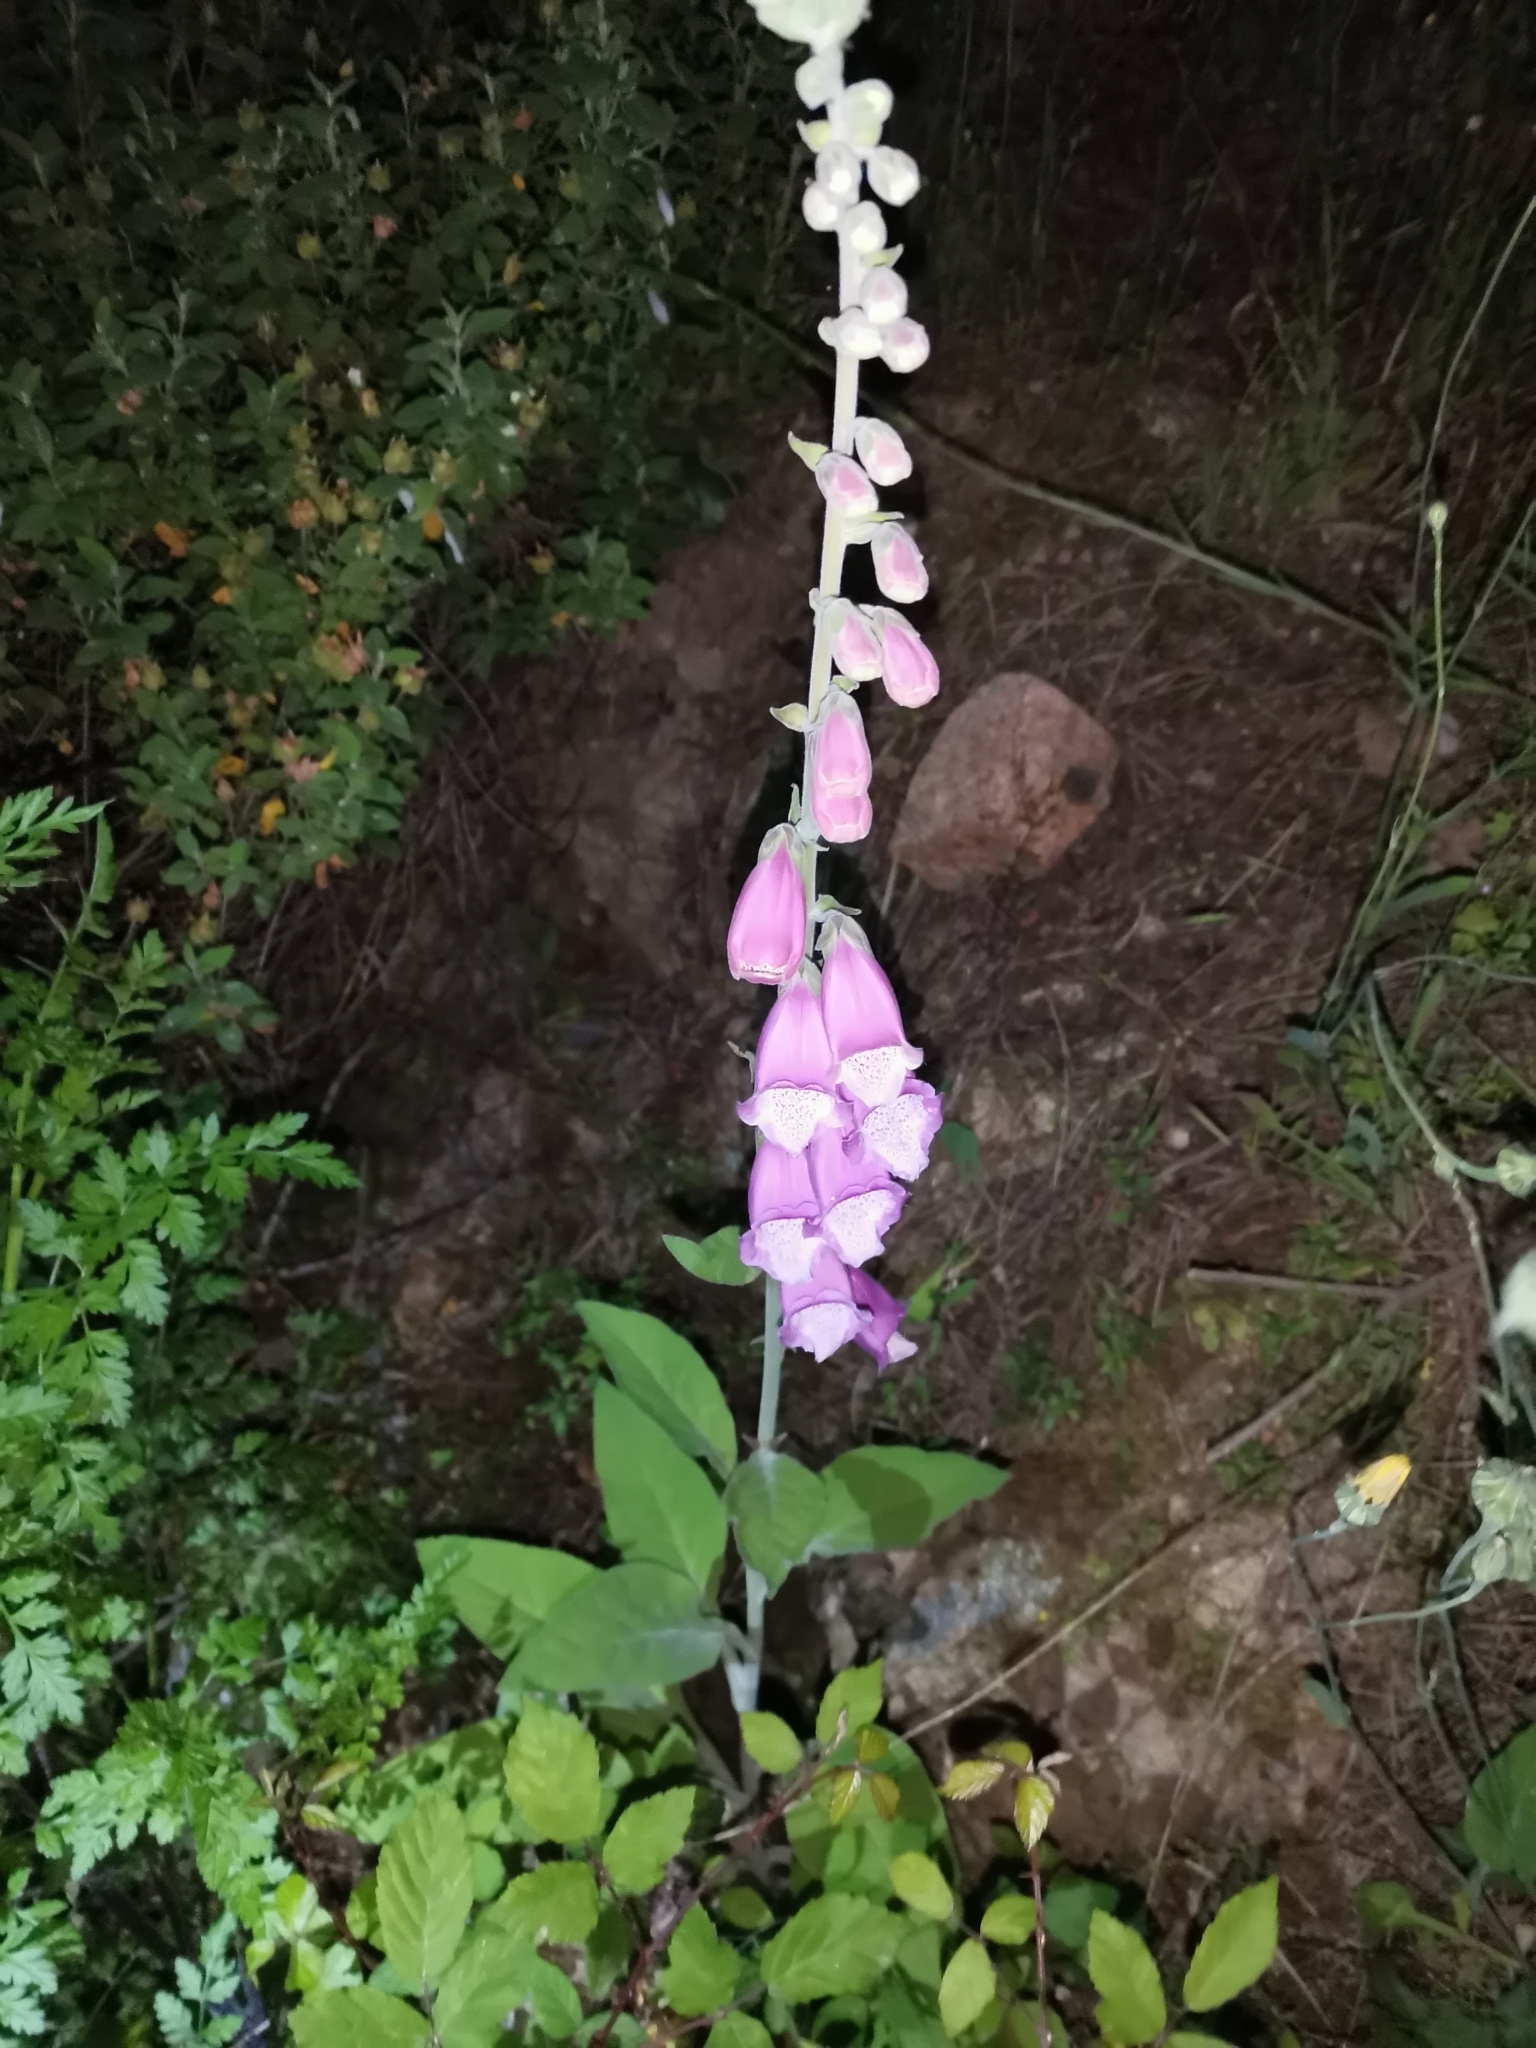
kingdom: Plantae
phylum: Tracheophyta
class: Magnoliopsida
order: Lamiales
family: Plantaginaceae
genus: Digitalis
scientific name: Digitalis purpurea
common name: Foxglove
